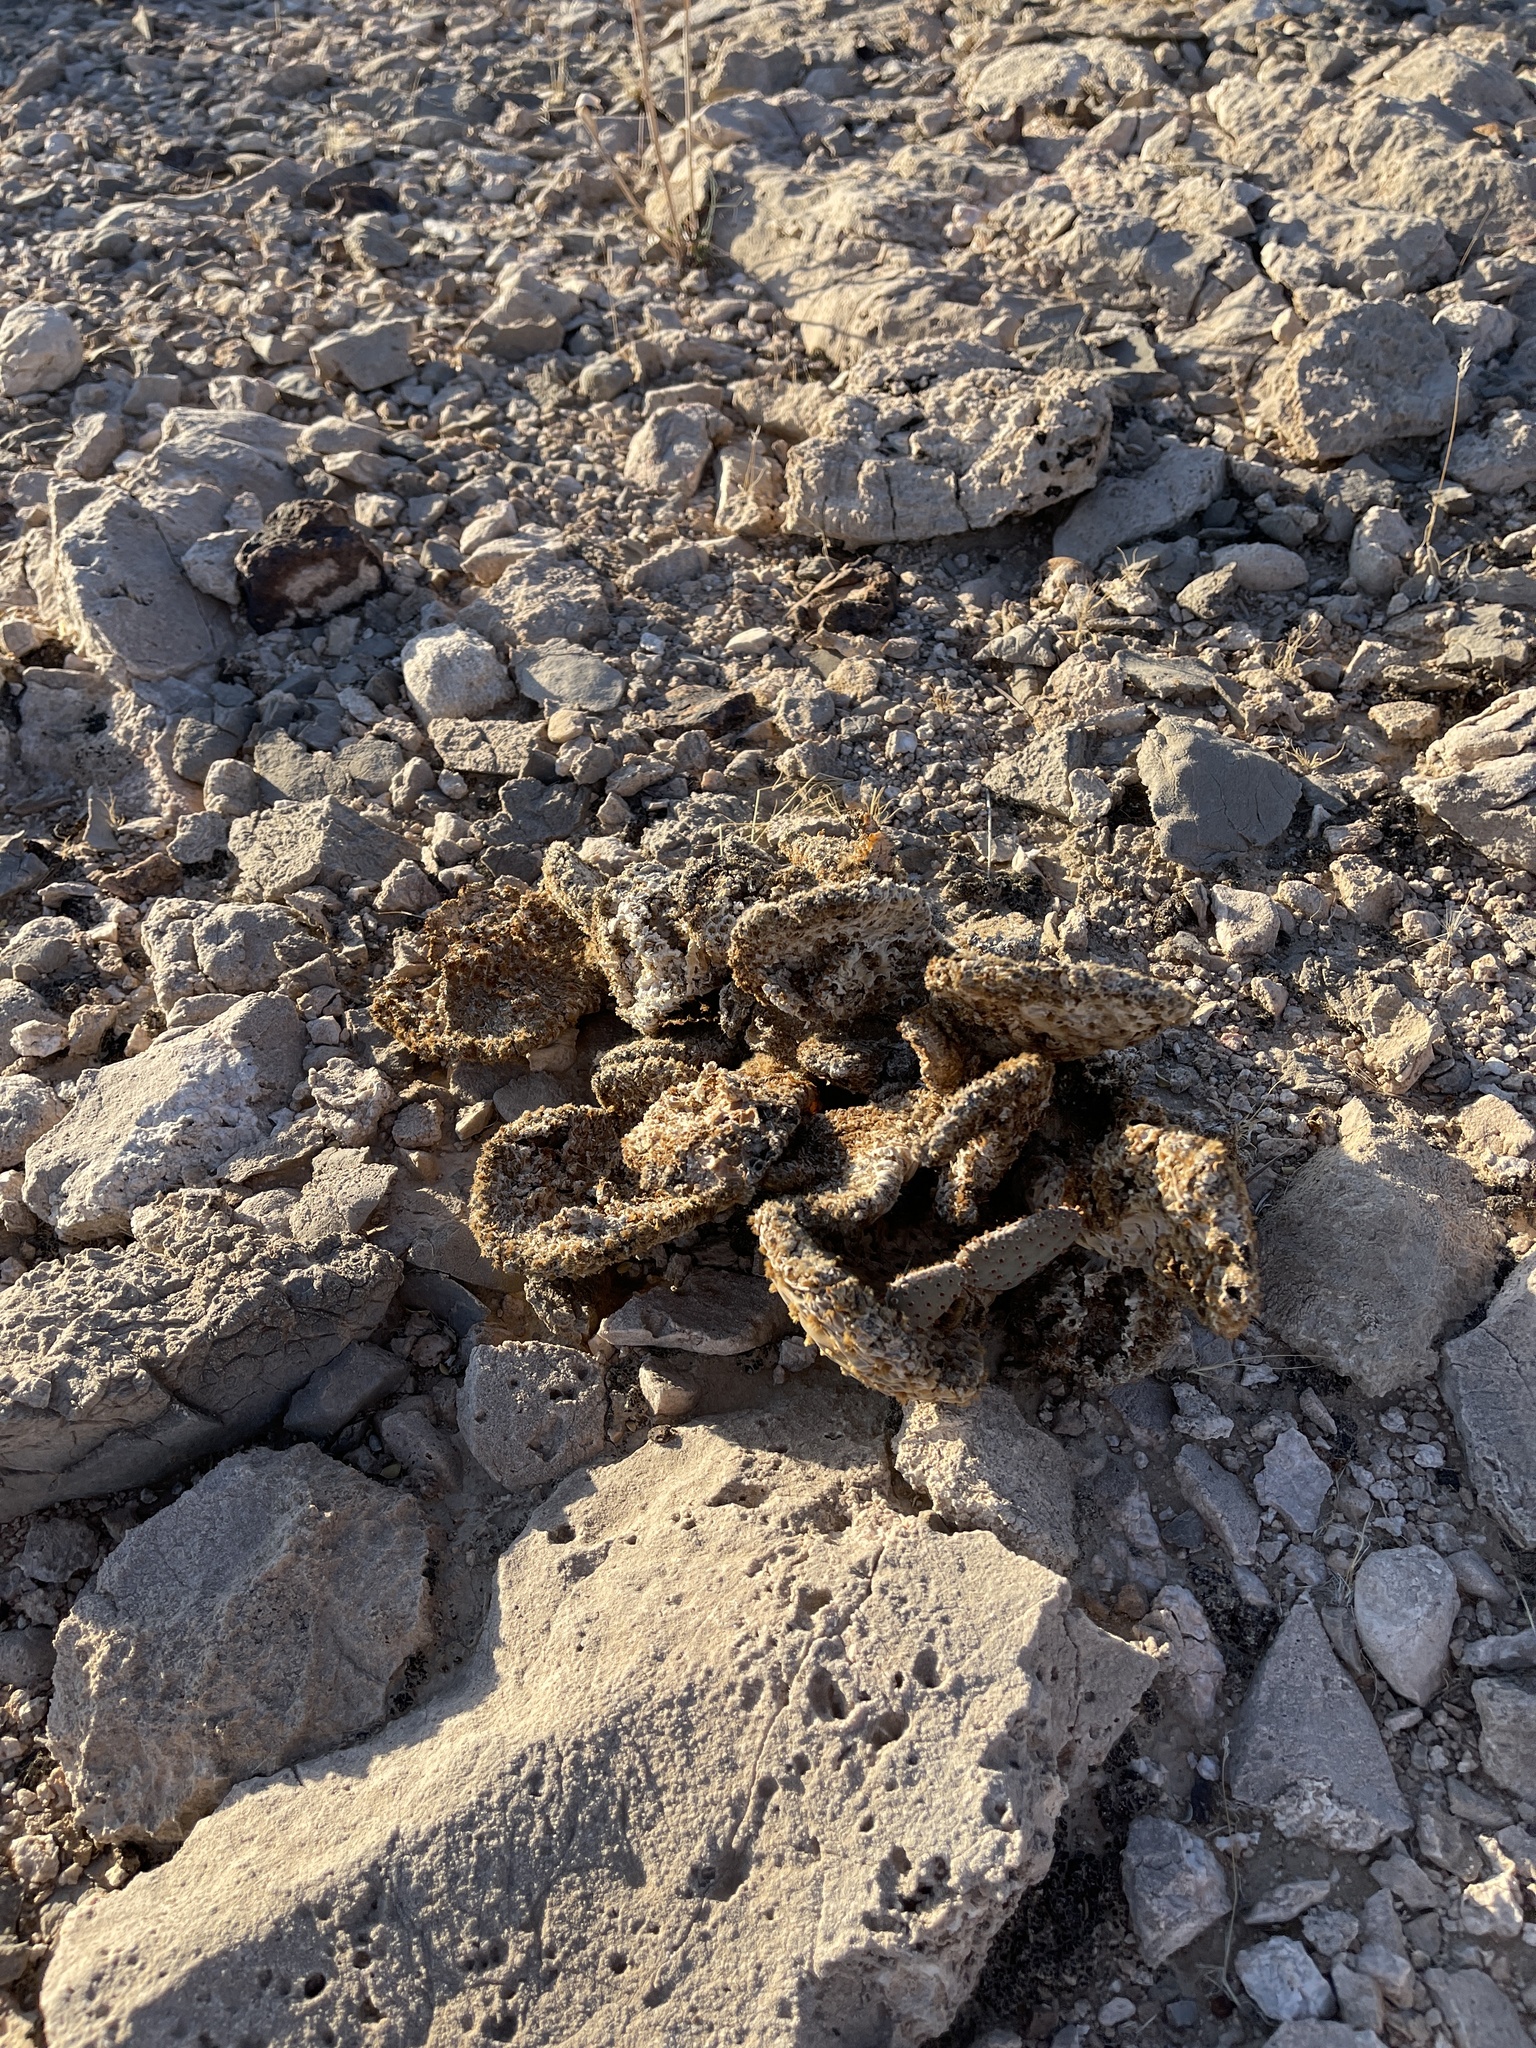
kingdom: Plantae
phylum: Tracheophyta
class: Magnoliopsida
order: Caryophyllales
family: Cactaceae
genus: Opuntia
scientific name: Opuntia basilaris
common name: Beavertail prickly-pear
